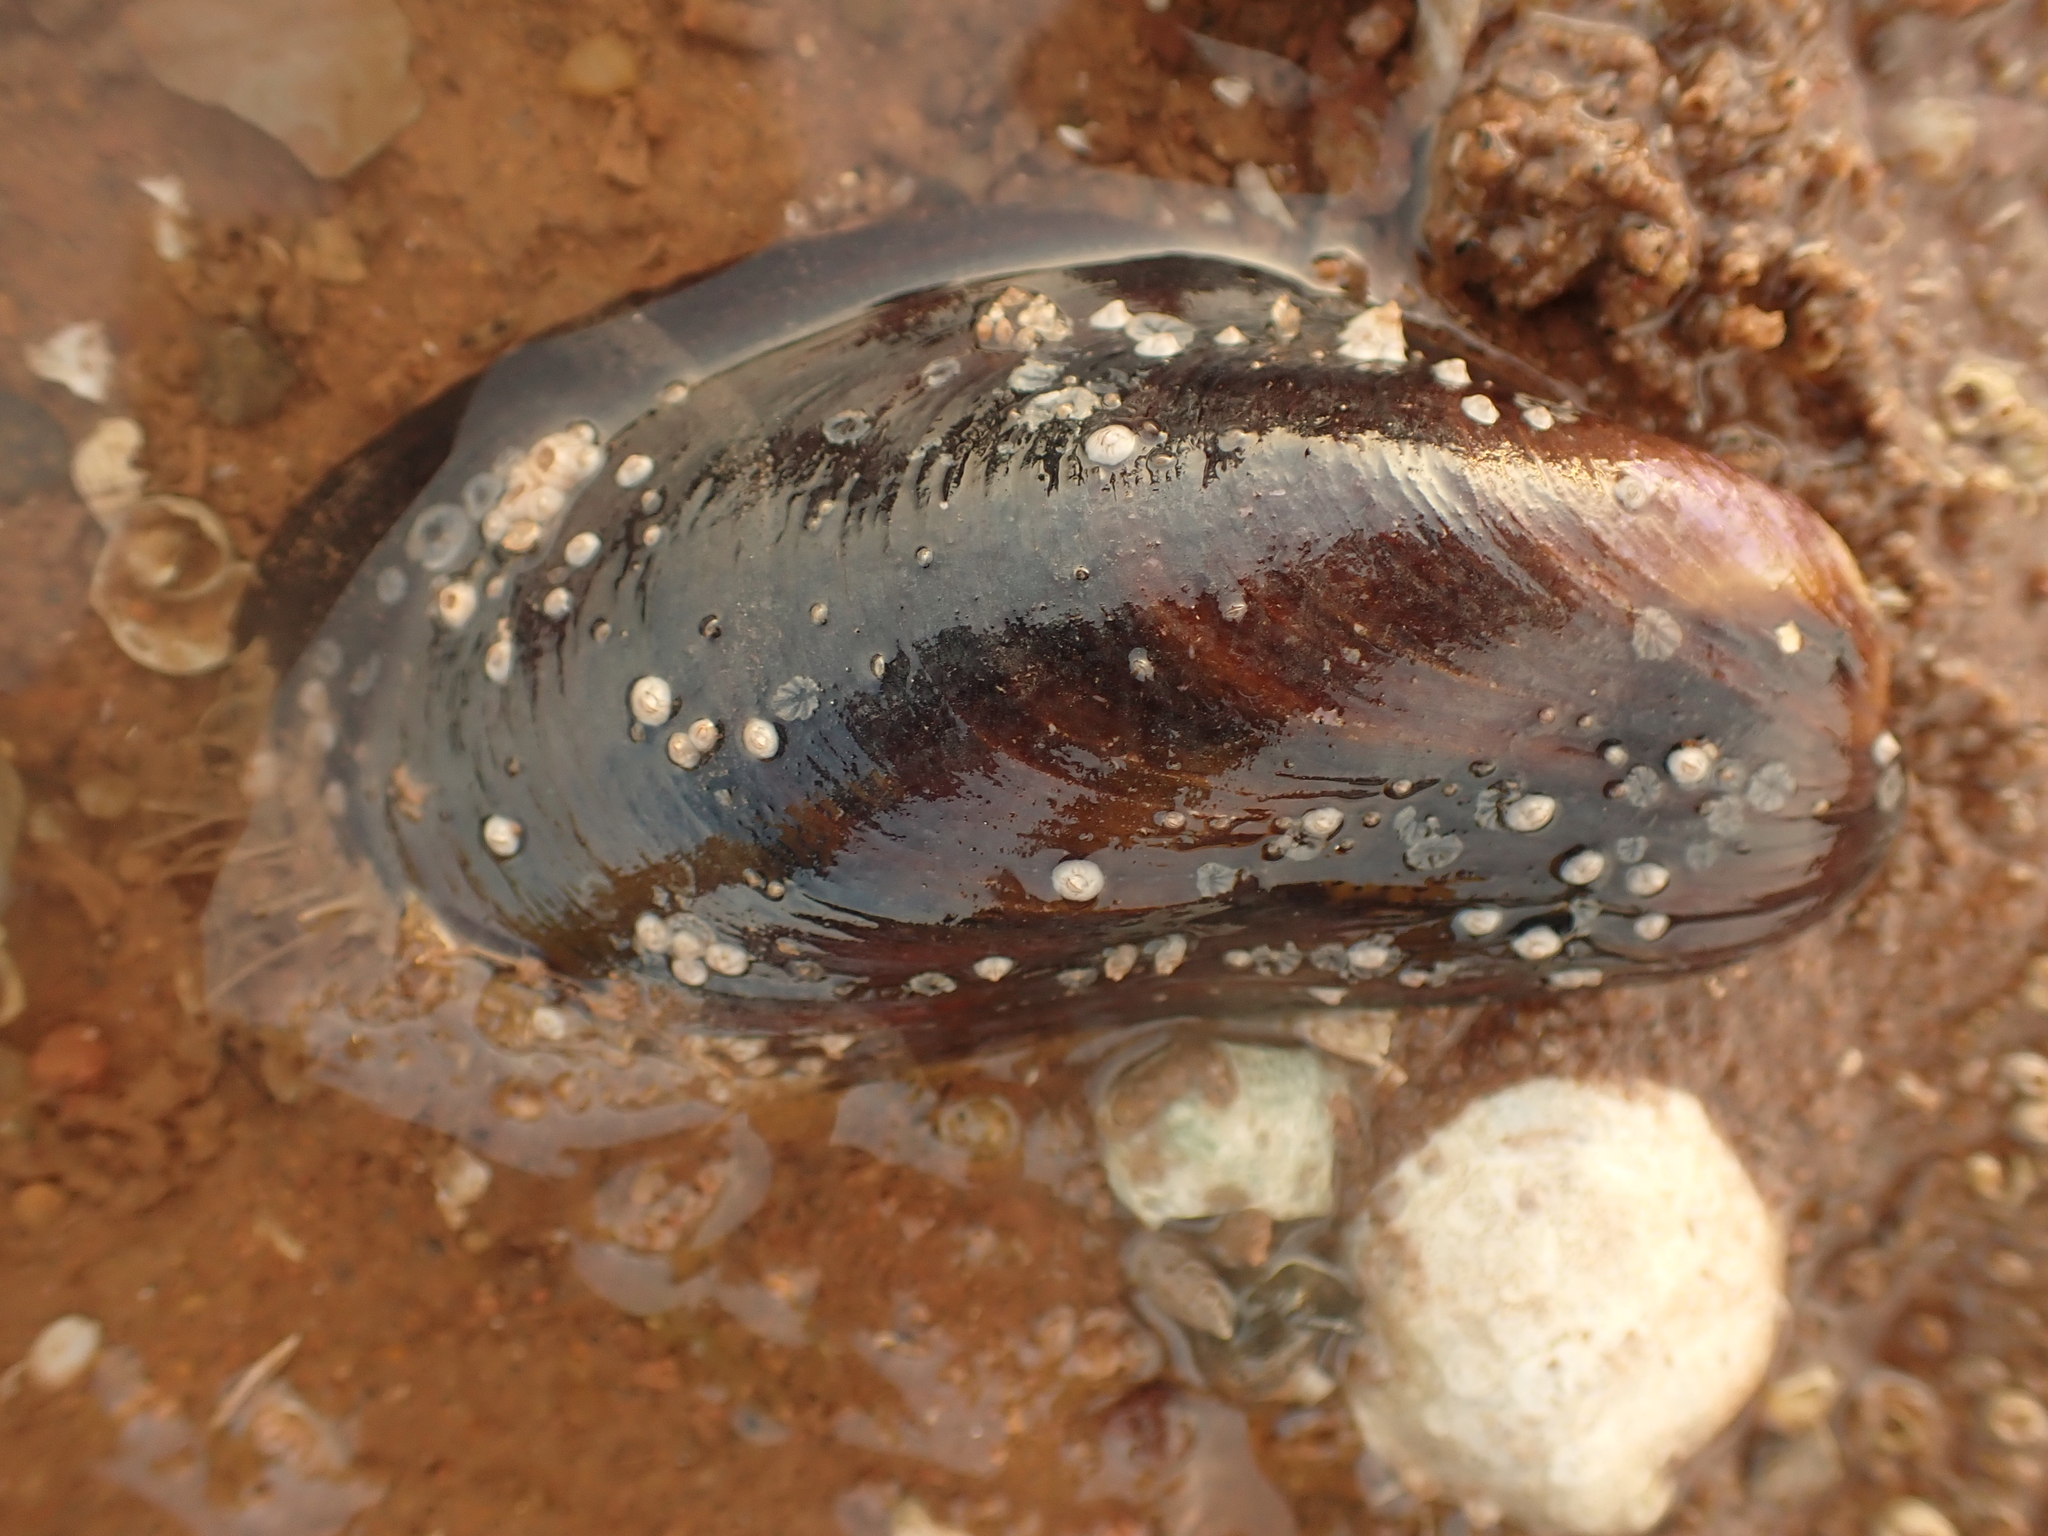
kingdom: Animalia
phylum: Mollusca
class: Bivalvia
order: Mytilida
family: Mytilidae
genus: Modiolus
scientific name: Modiolus modiolus
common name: Horse-mussel
